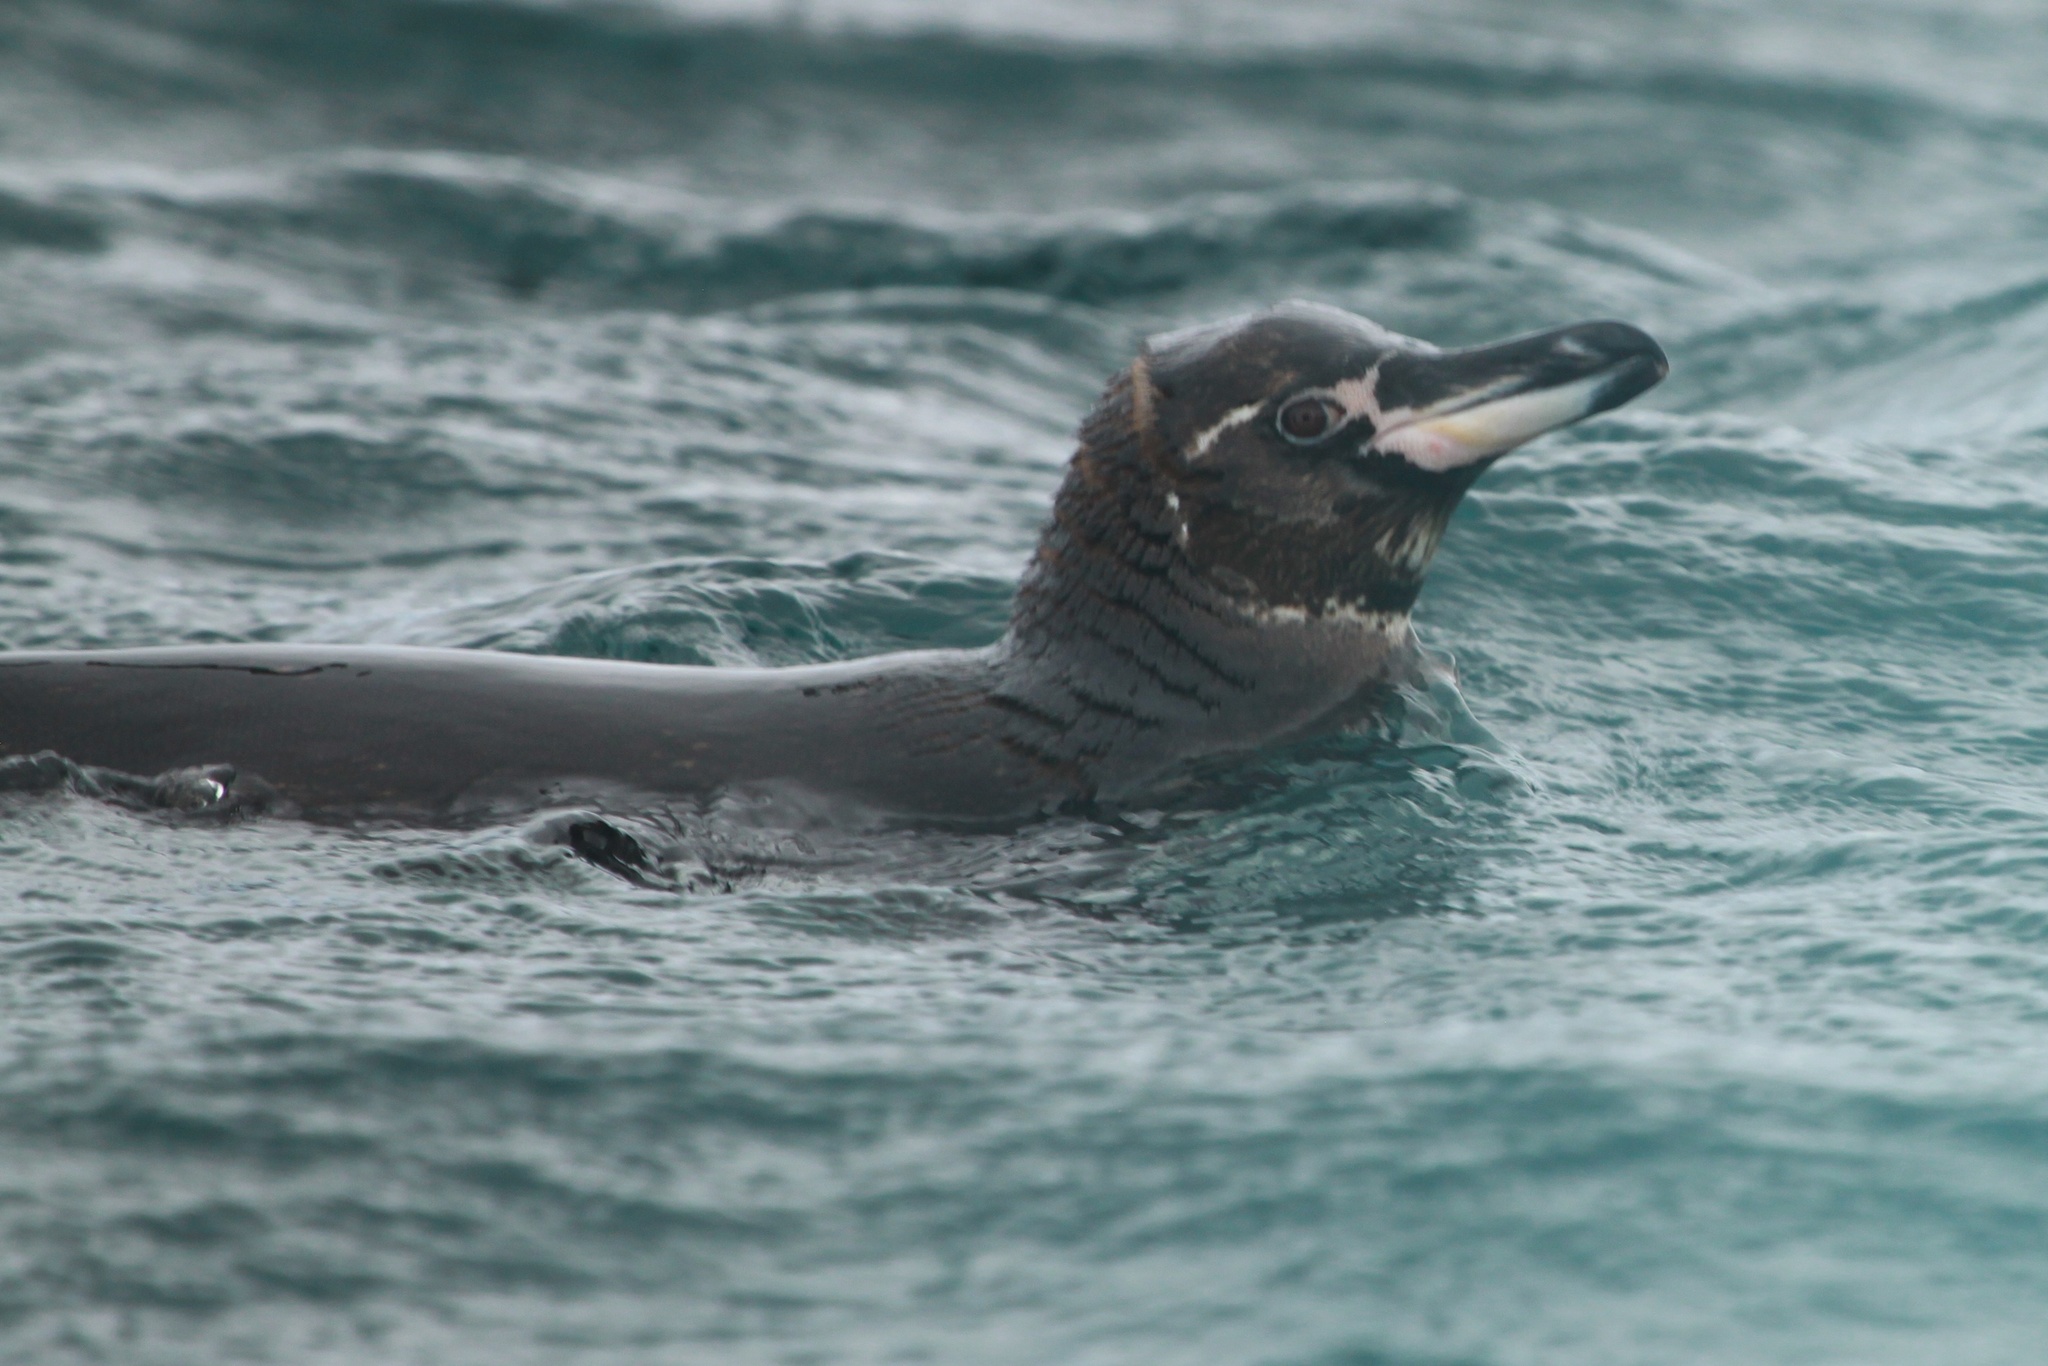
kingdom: Animalia
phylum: Chordata
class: Aves
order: Sphenisciformes
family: Spheniscidae
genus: Spheniscus
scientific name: Spheniscus mendiculus
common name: Galapagos penguin
